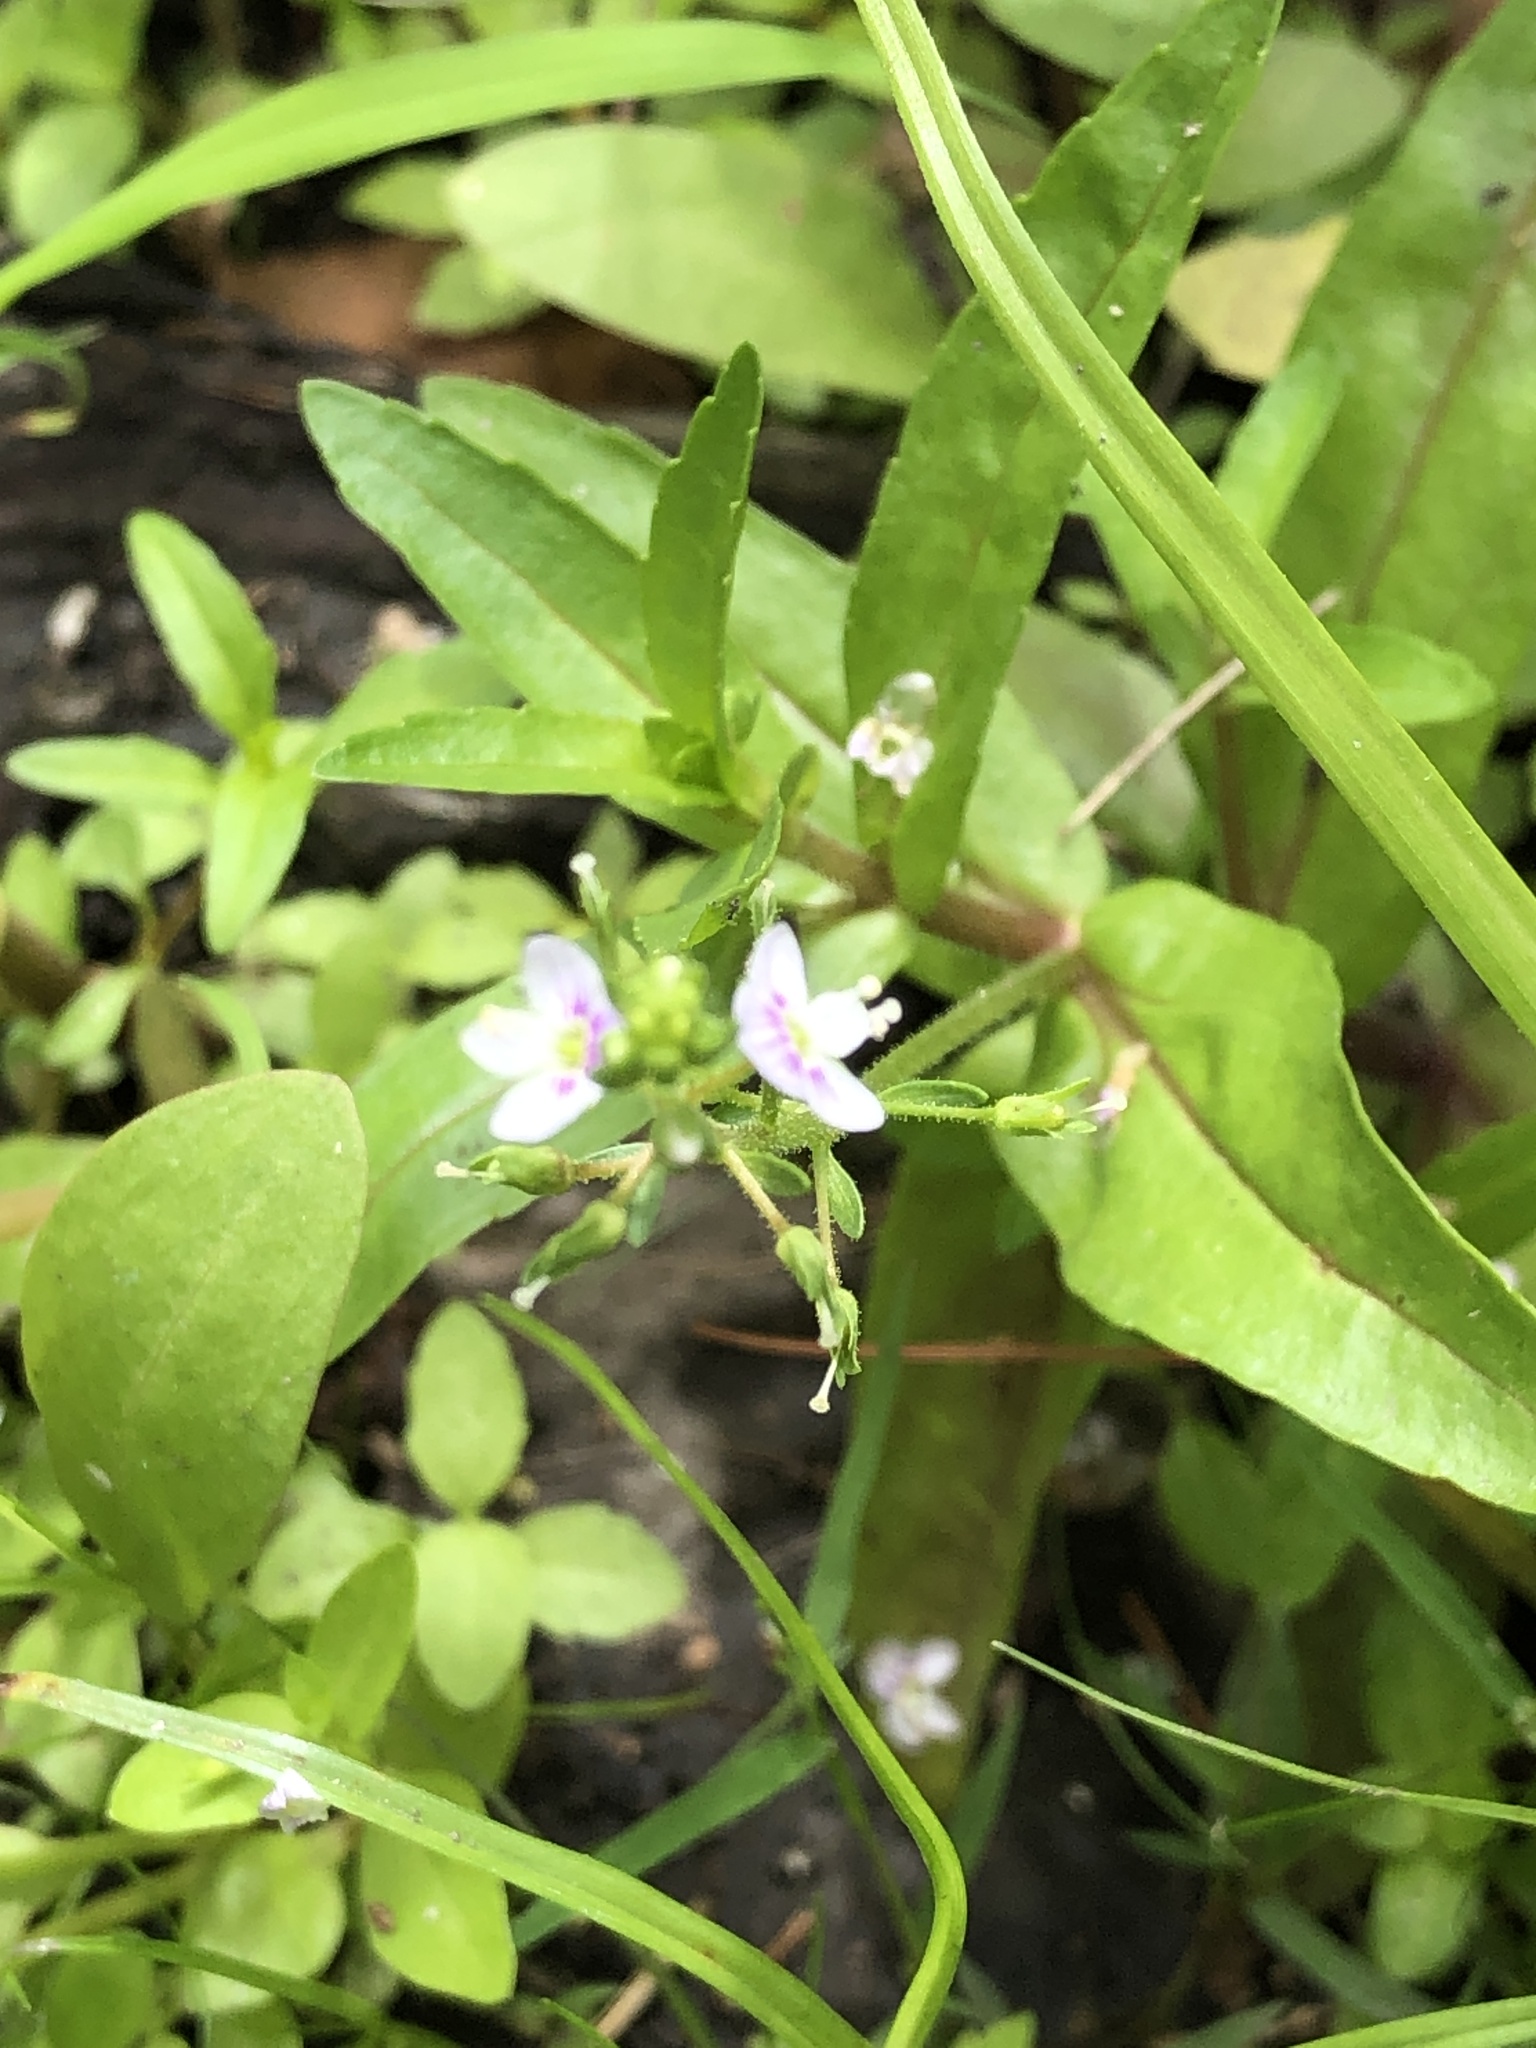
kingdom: Plantae
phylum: Tracheophyta
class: Magnoliopsida
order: Lamiales
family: Plantaginaceae
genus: Veronica
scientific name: Veronica catenata
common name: Pink water-speedwell
